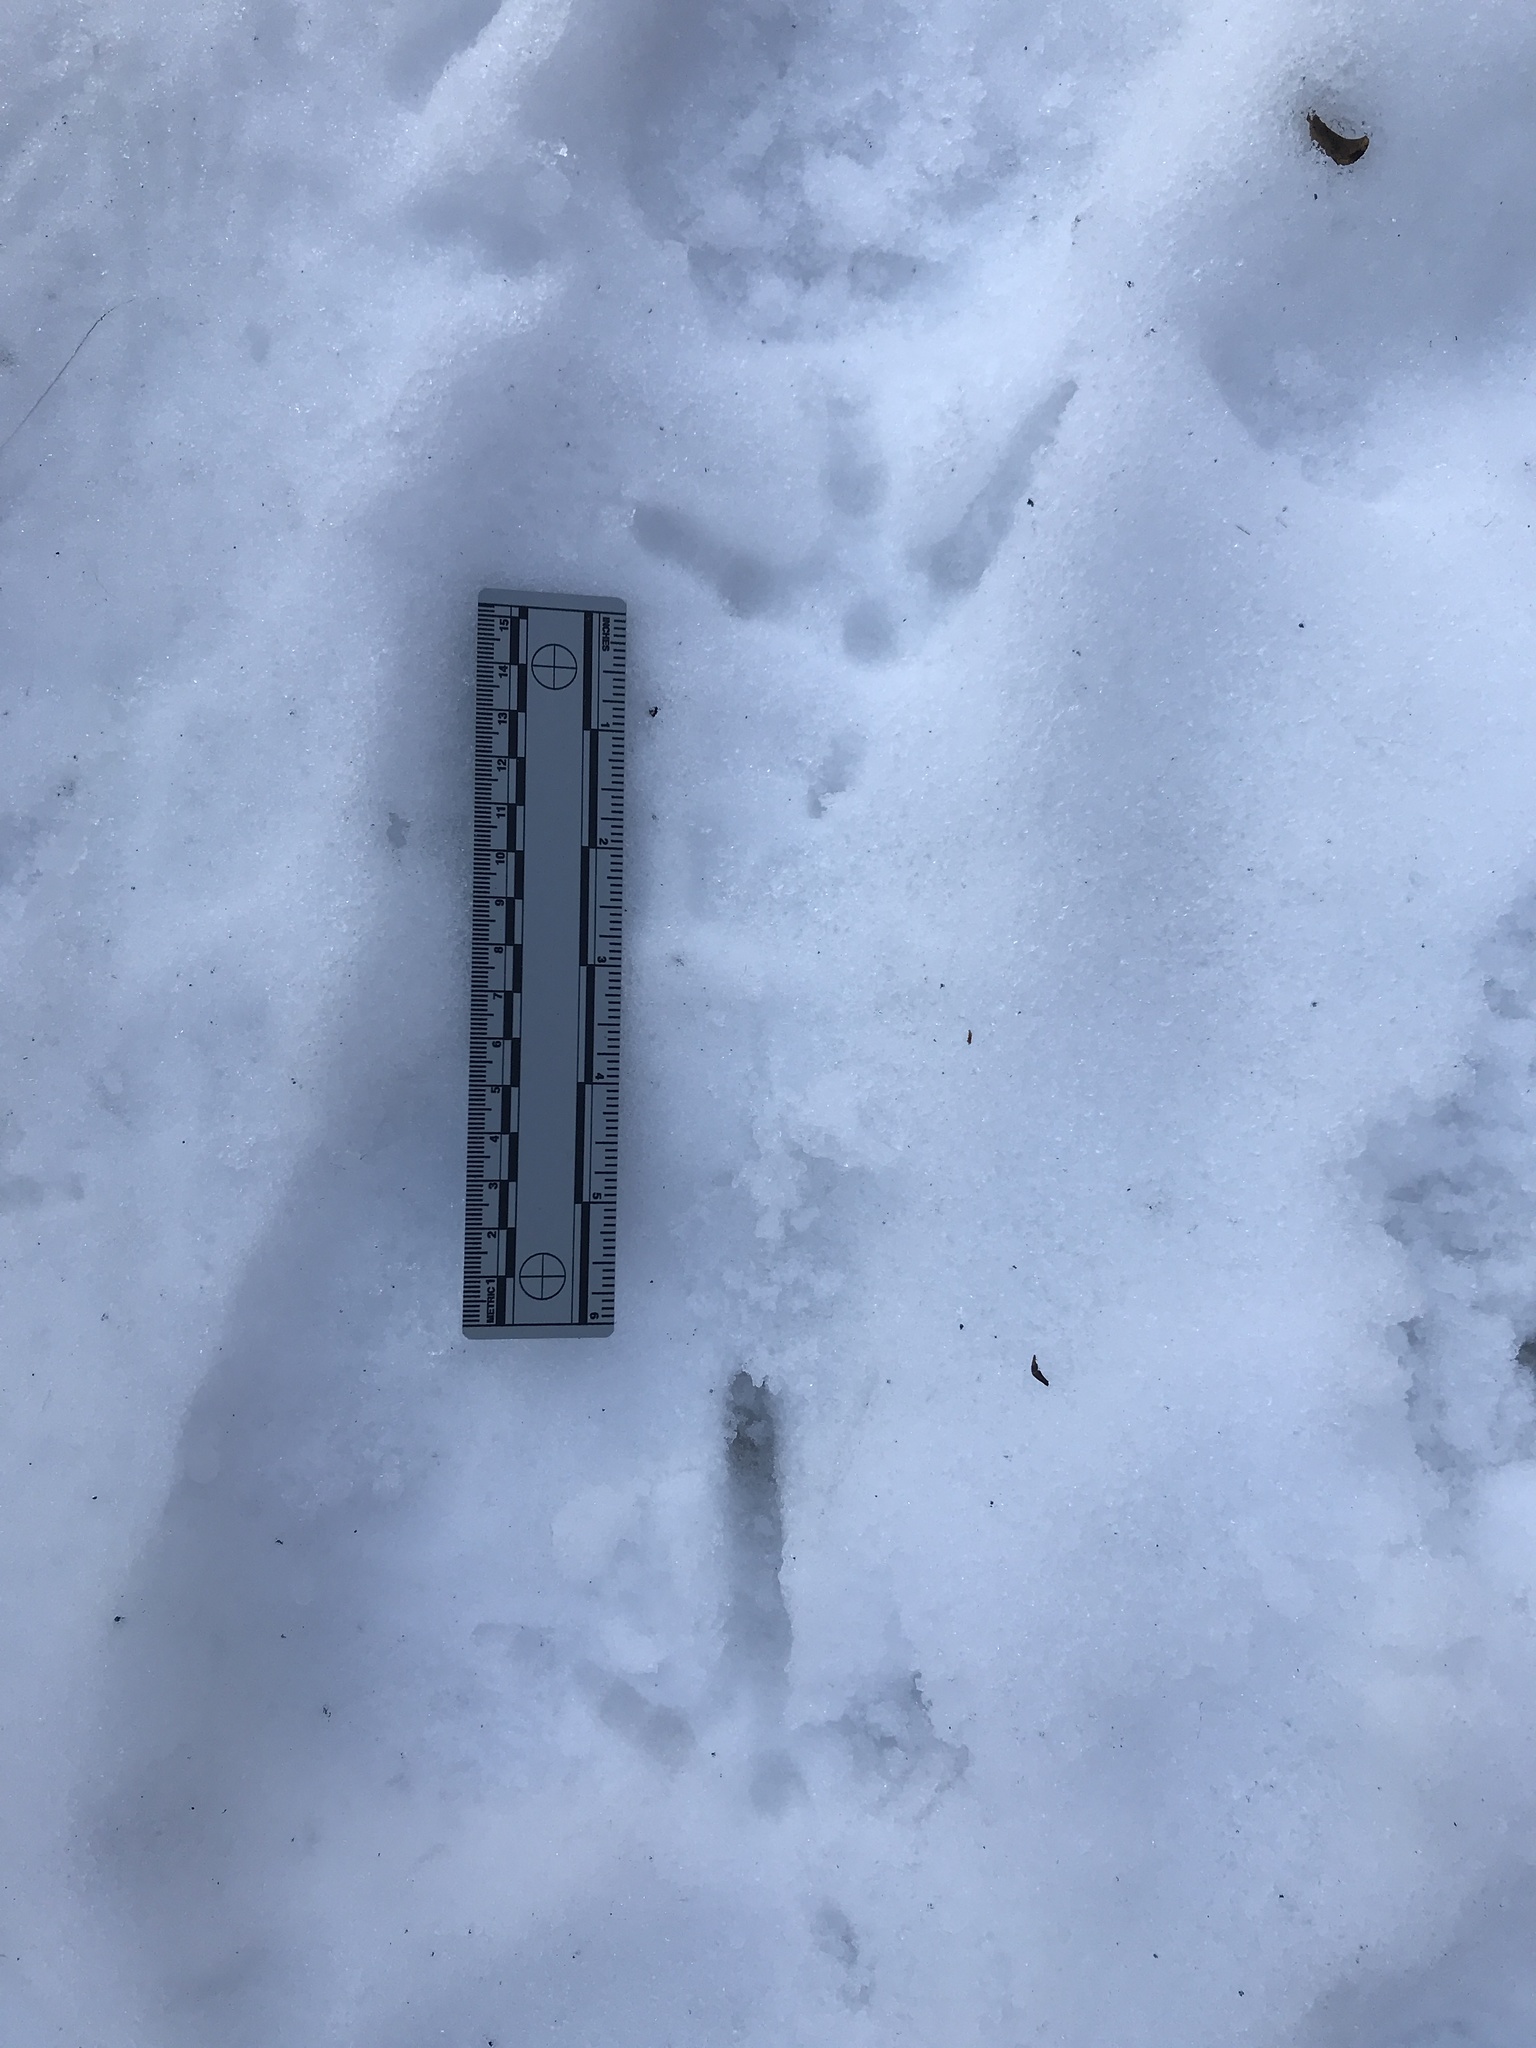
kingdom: Animalia
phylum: Chordata
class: Aves
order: Galliformes
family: Phasianidae
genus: Meleagris
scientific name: Meleagris gallopavo
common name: Wild turkey
